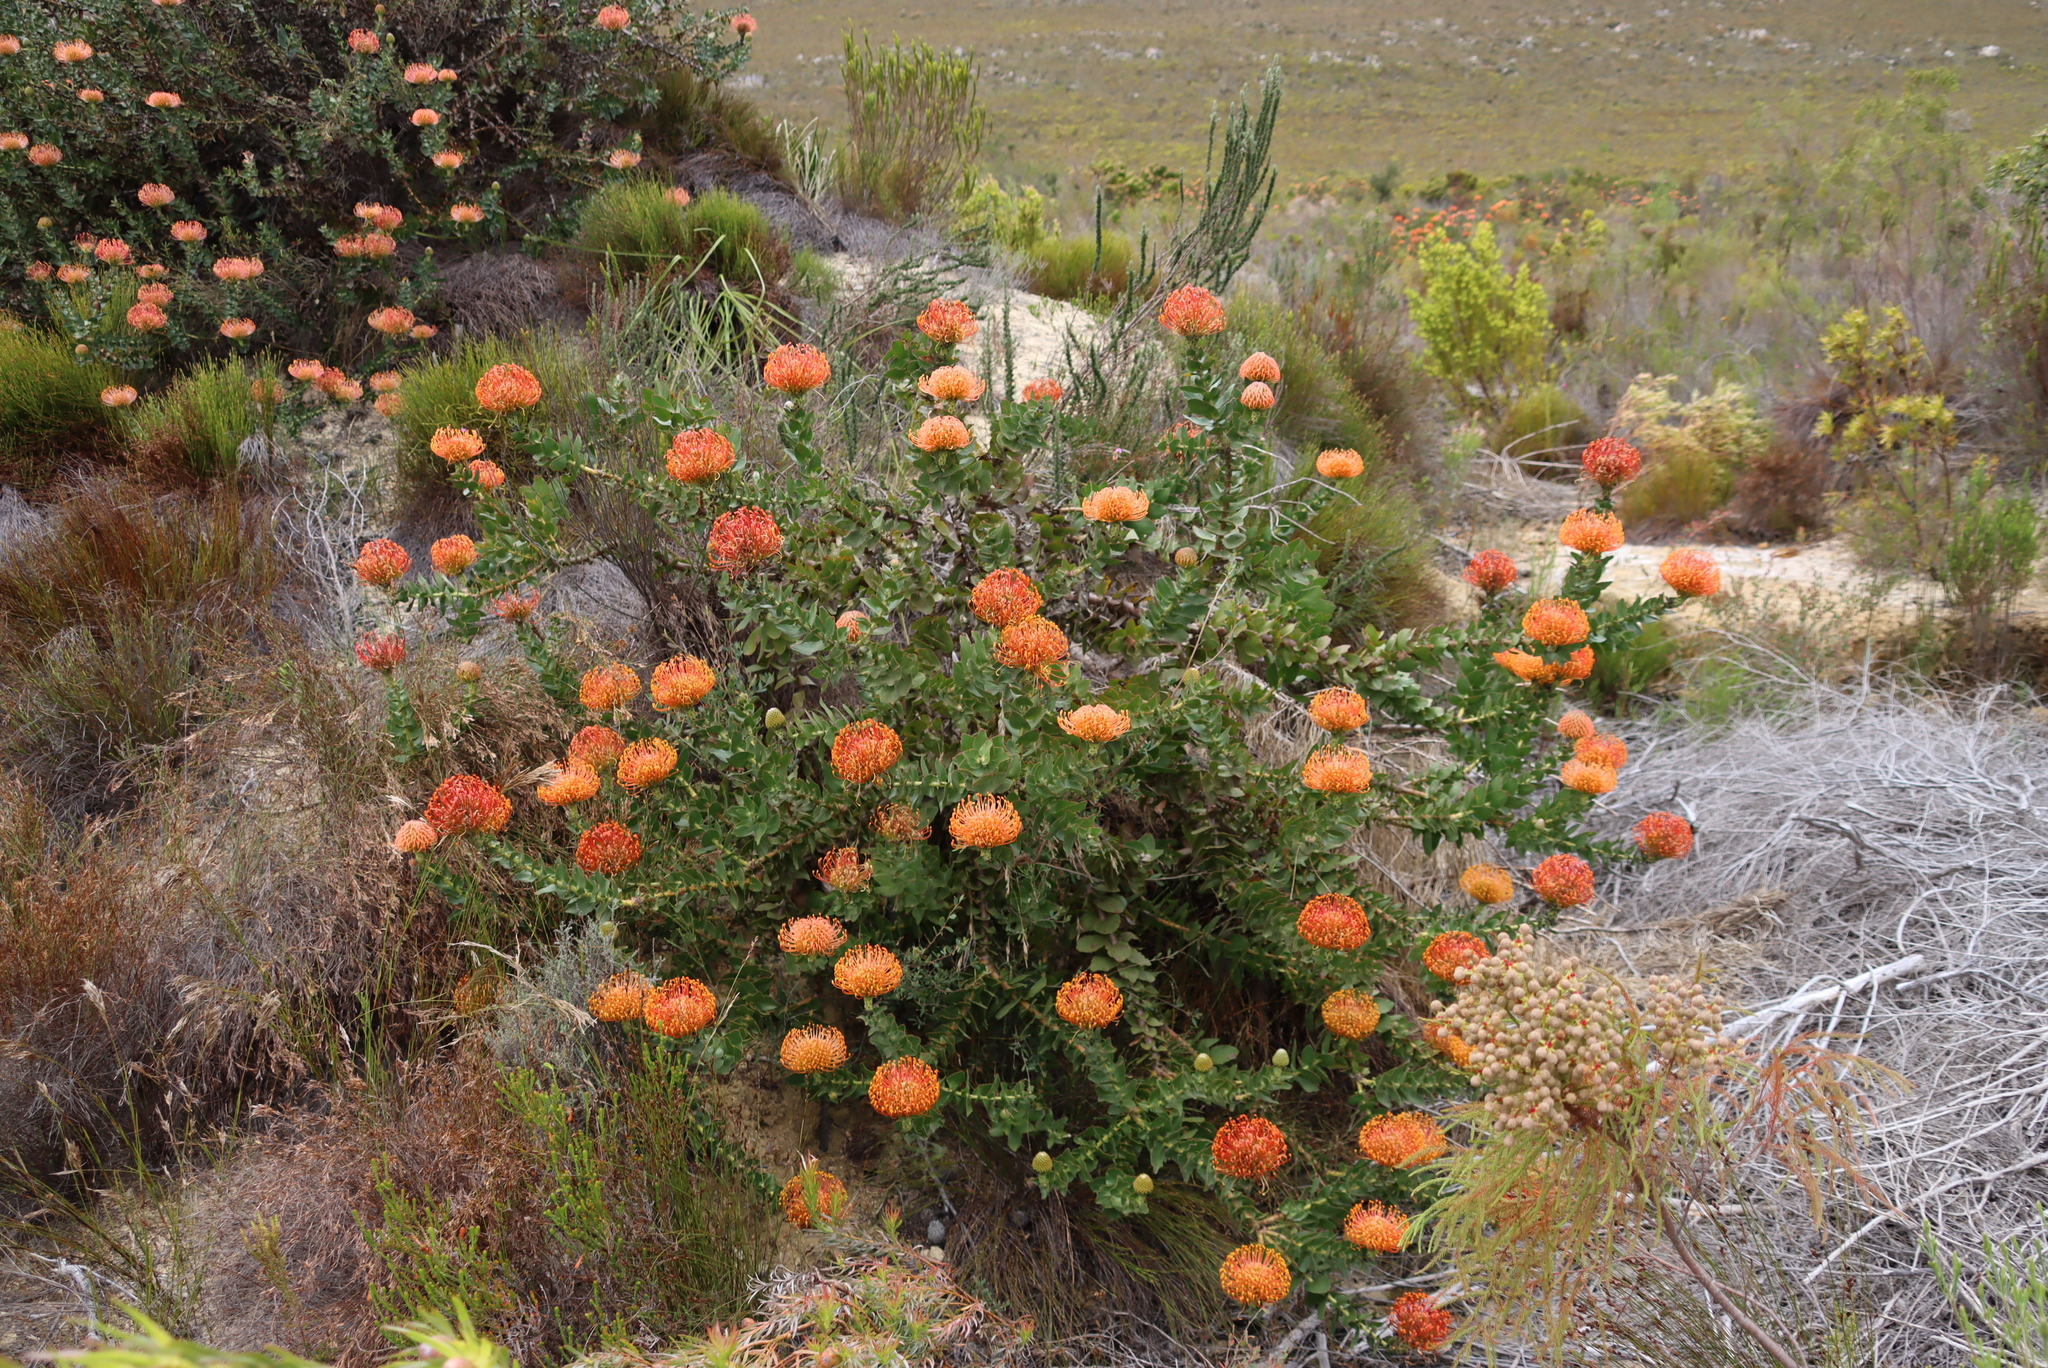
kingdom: Plantae
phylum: Tracheophyta
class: Magnoliopsida
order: Proteales
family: Proteaceae
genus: Leucospermum
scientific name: Leucospermum cordifolium
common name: Red pincushion-protea
